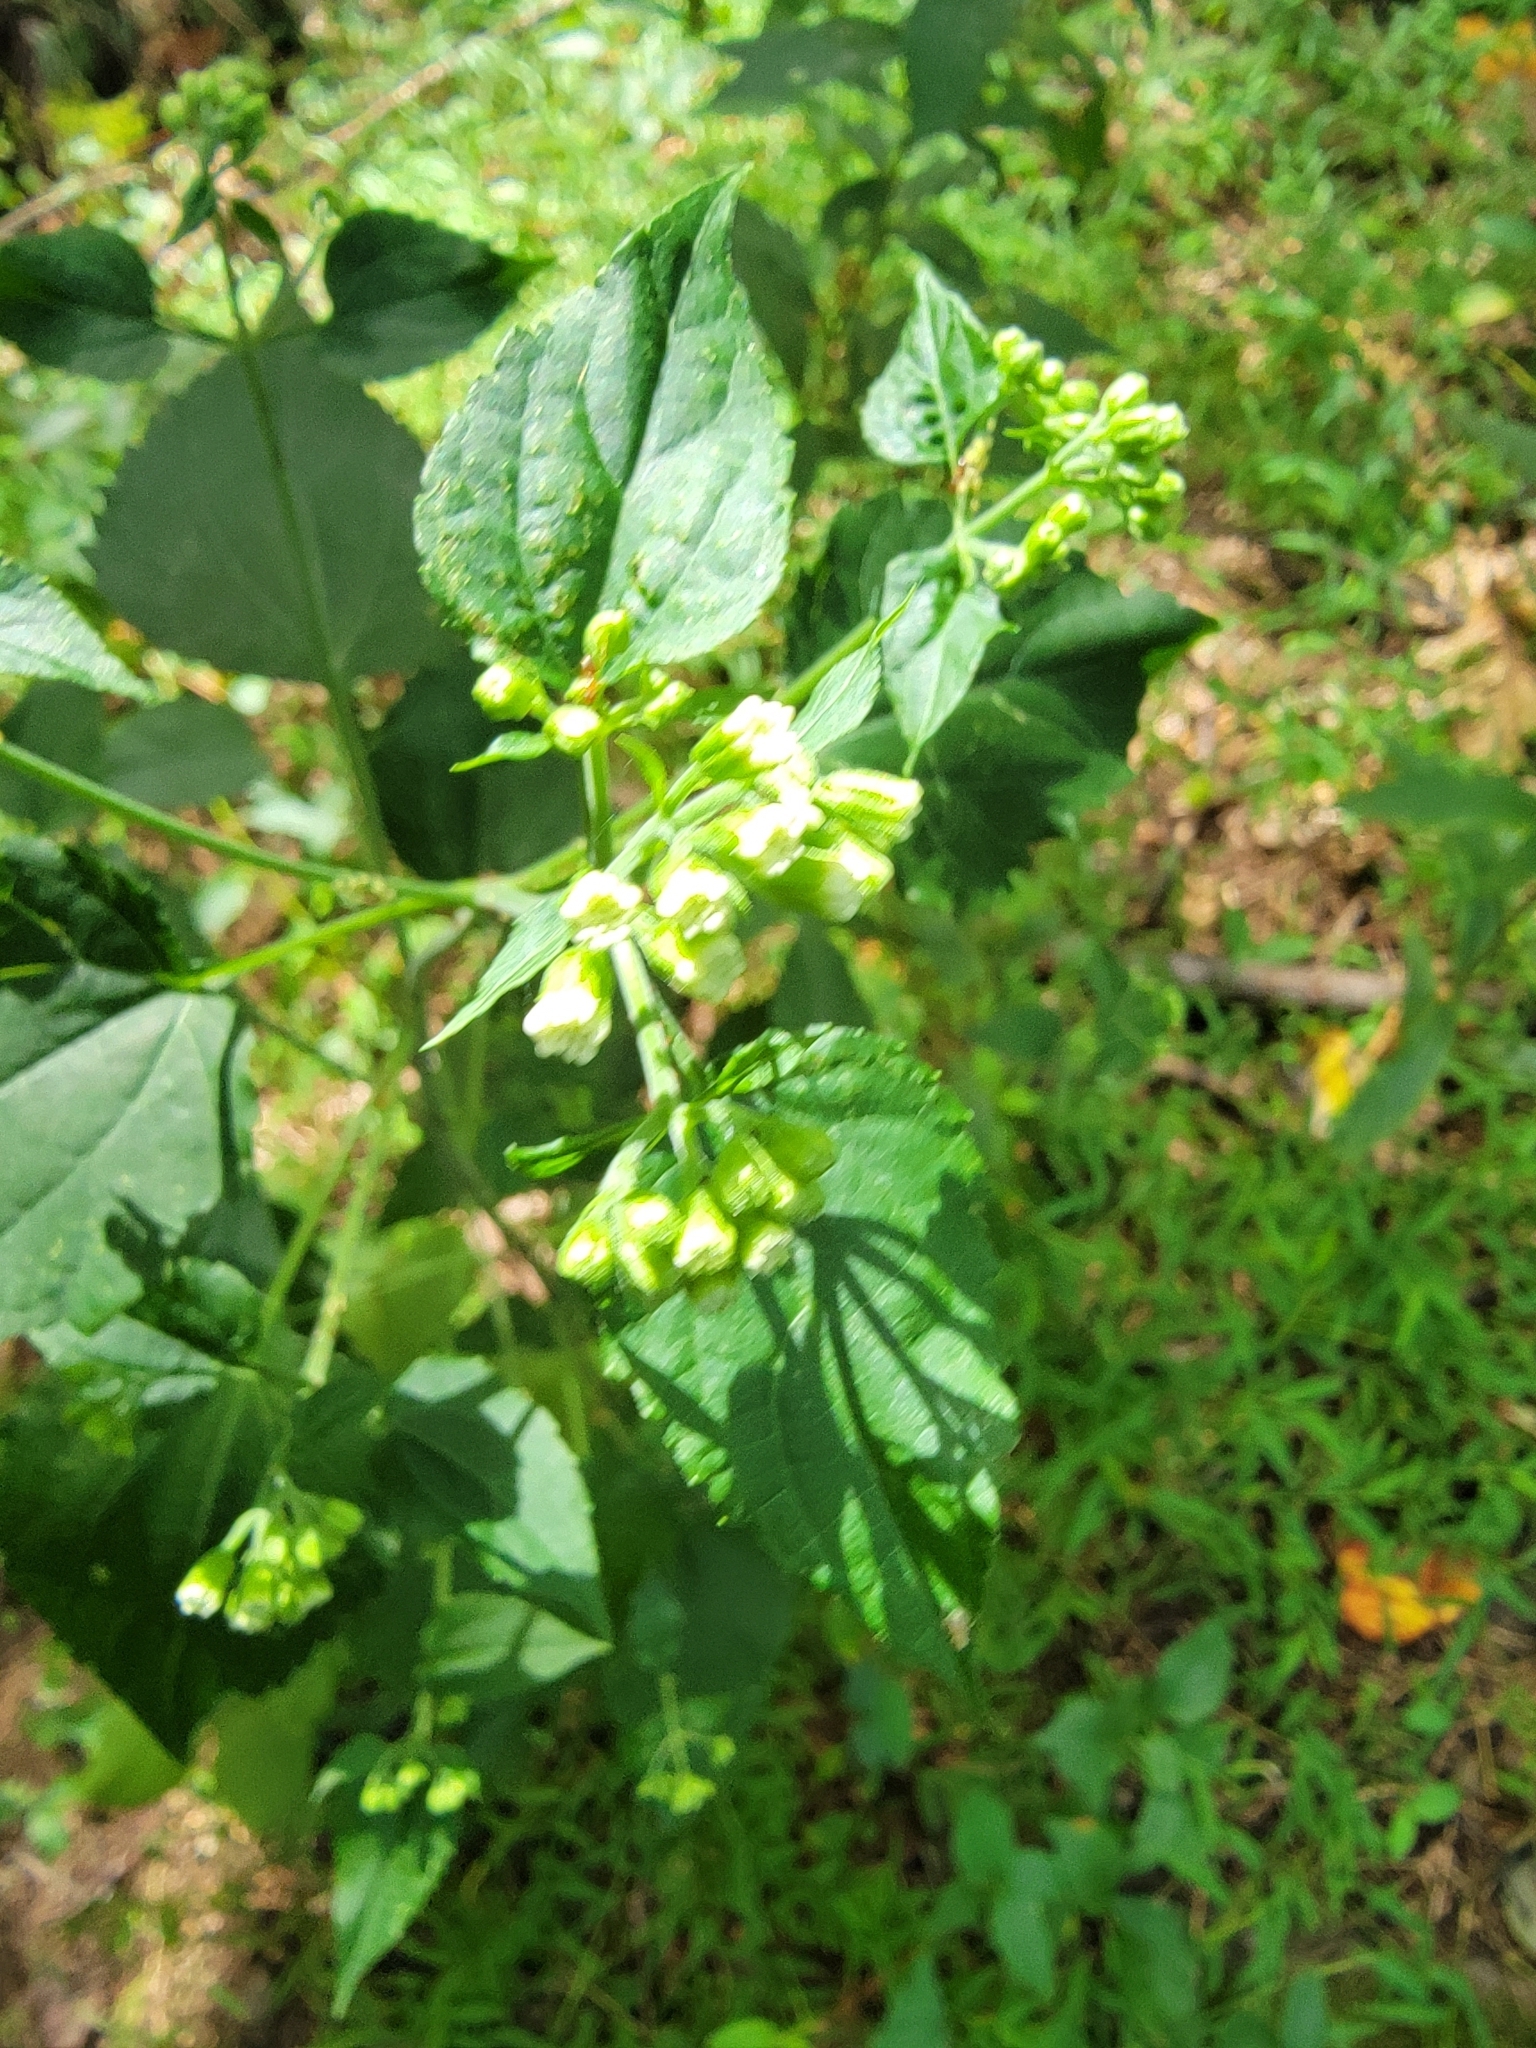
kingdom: Plantae
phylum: Tracheophyta
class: Magnoliopsida
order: Asterales
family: Asteraceae
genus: Ageratina
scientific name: Ageratina altissima
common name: White snakeroot
